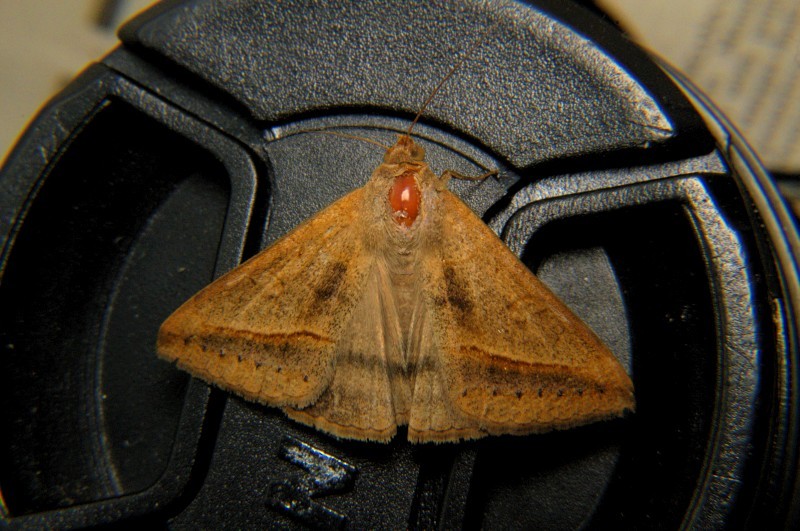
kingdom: Animalia
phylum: Arthropoda
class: Insecta
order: Lepidoptera
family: Erebidae
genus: Mocis
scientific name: Mocis frugalis
